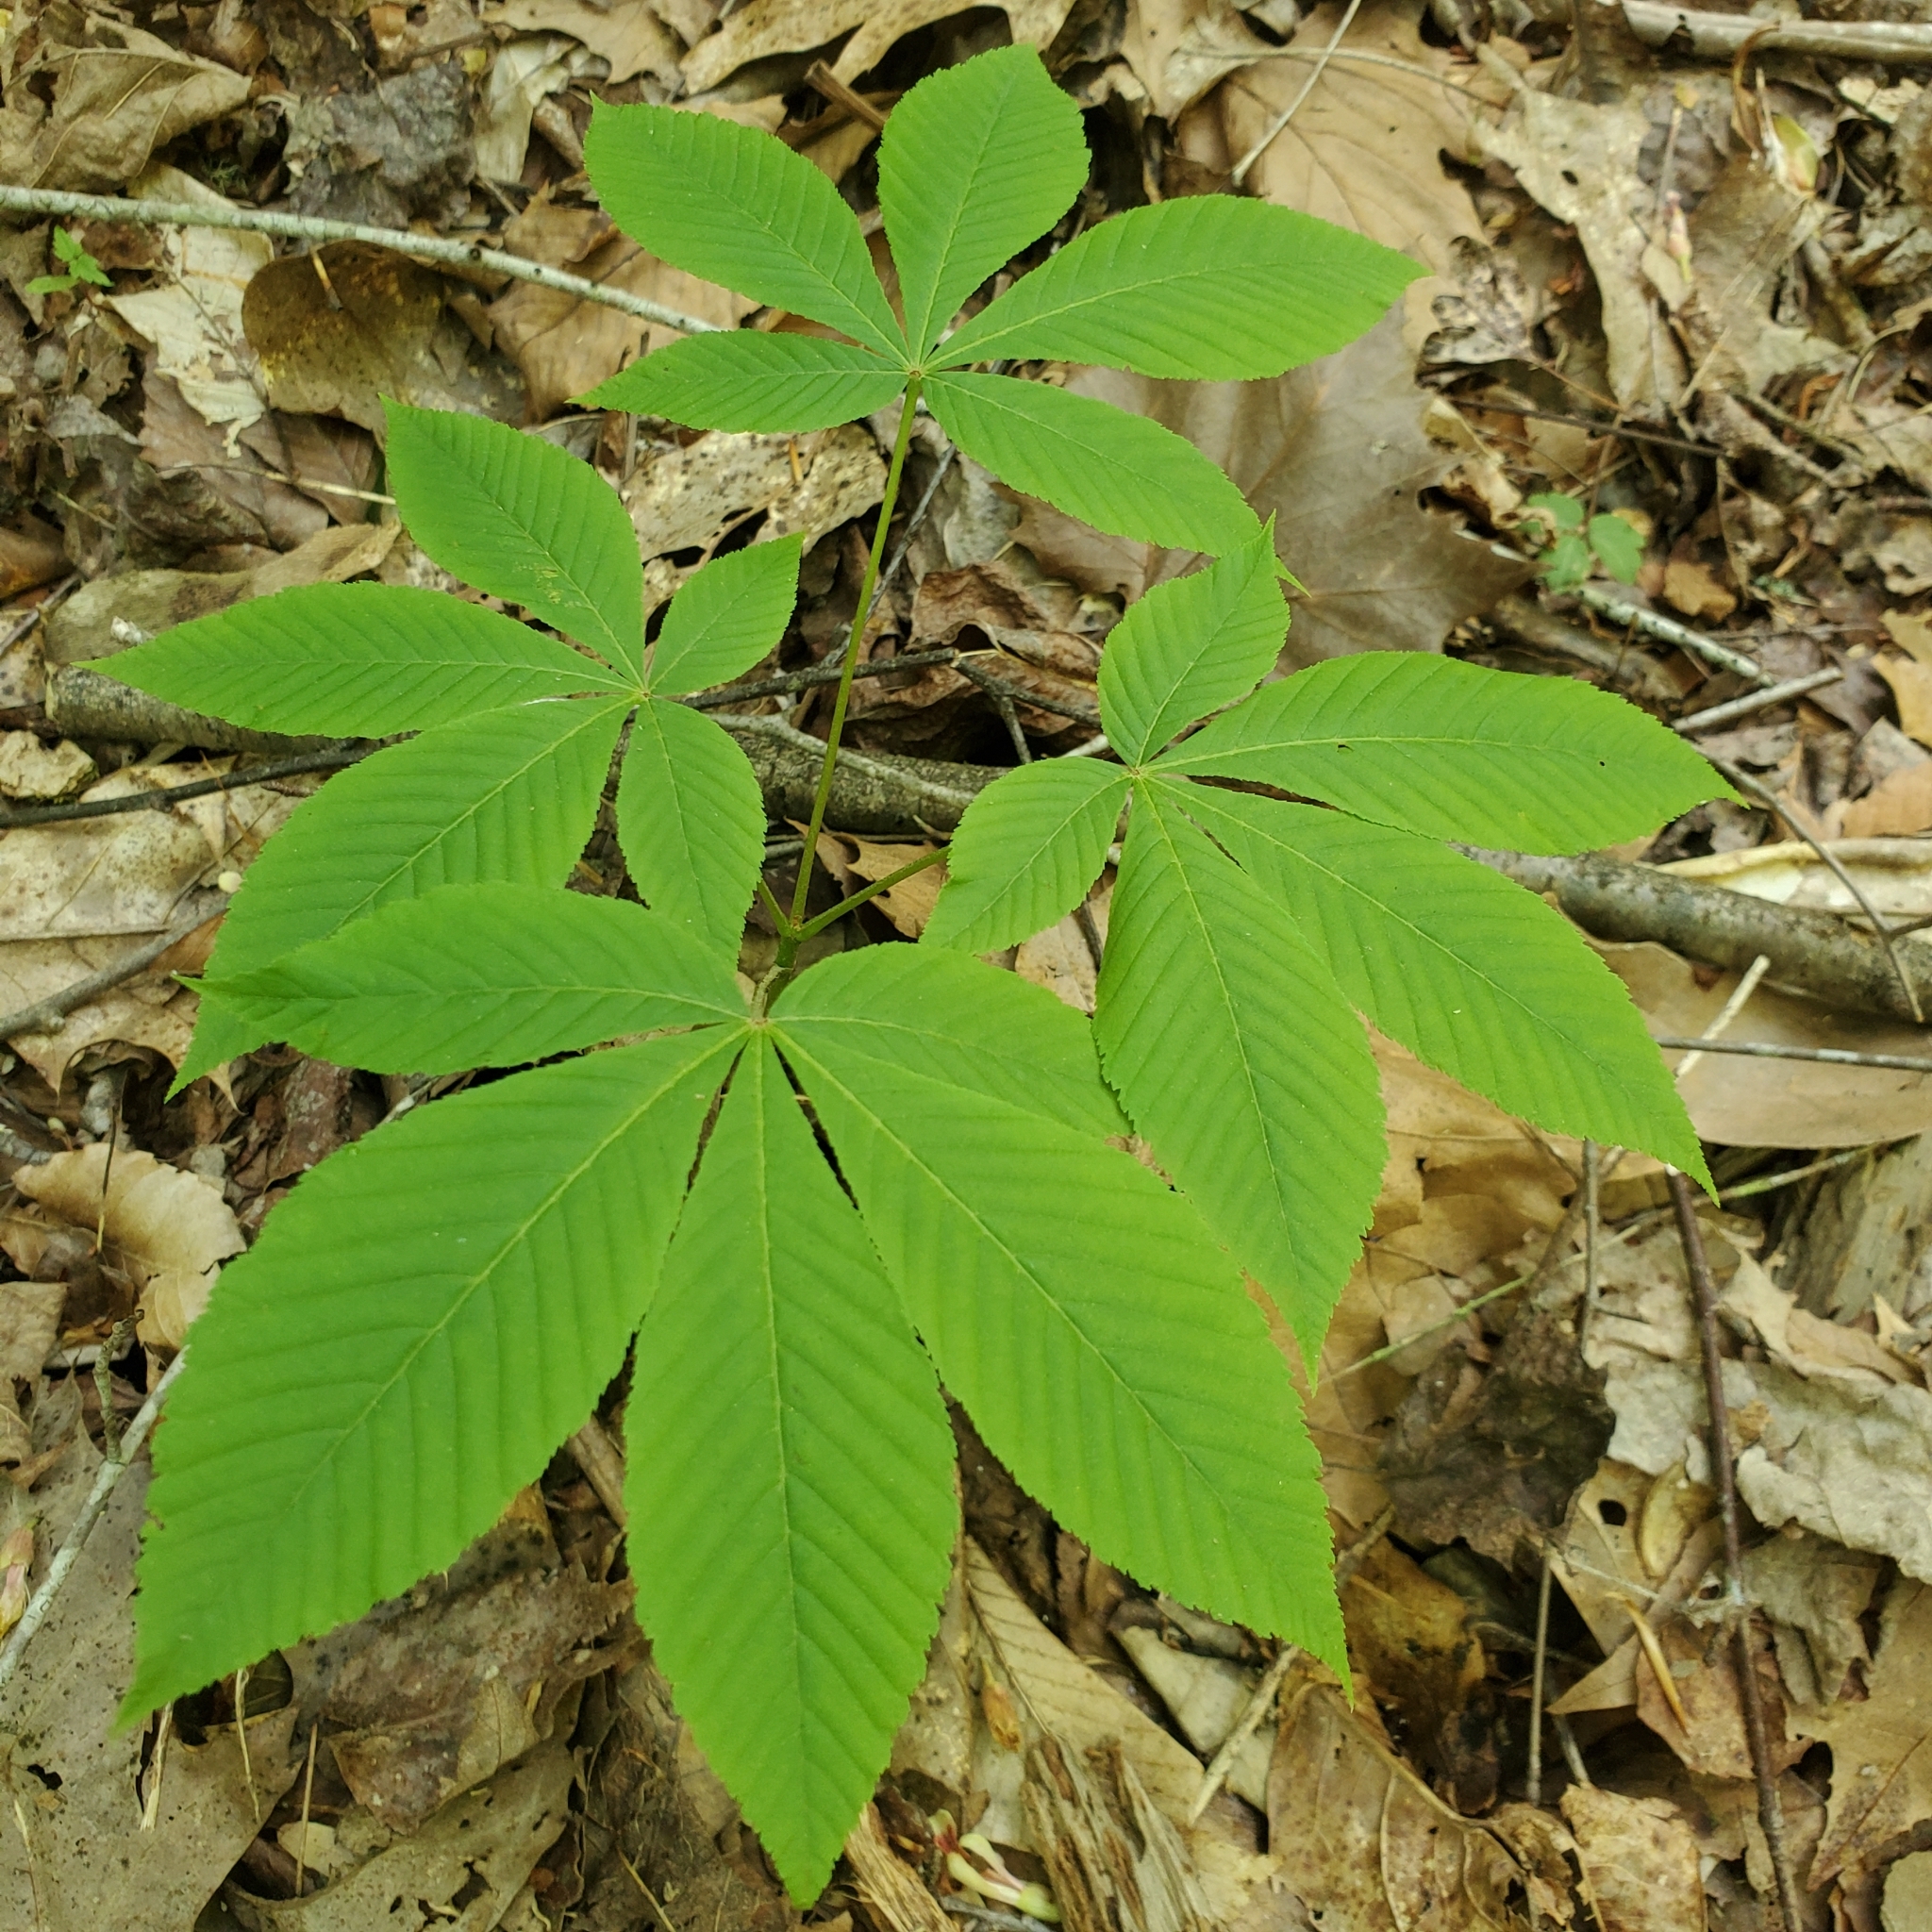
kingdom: Plantae
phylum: Tracheophyta
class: Magnoliopsida
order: Sapindales
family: Sapindaceae
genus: Aesculus
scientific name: Aesculus flava
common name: Yellow buckeye
